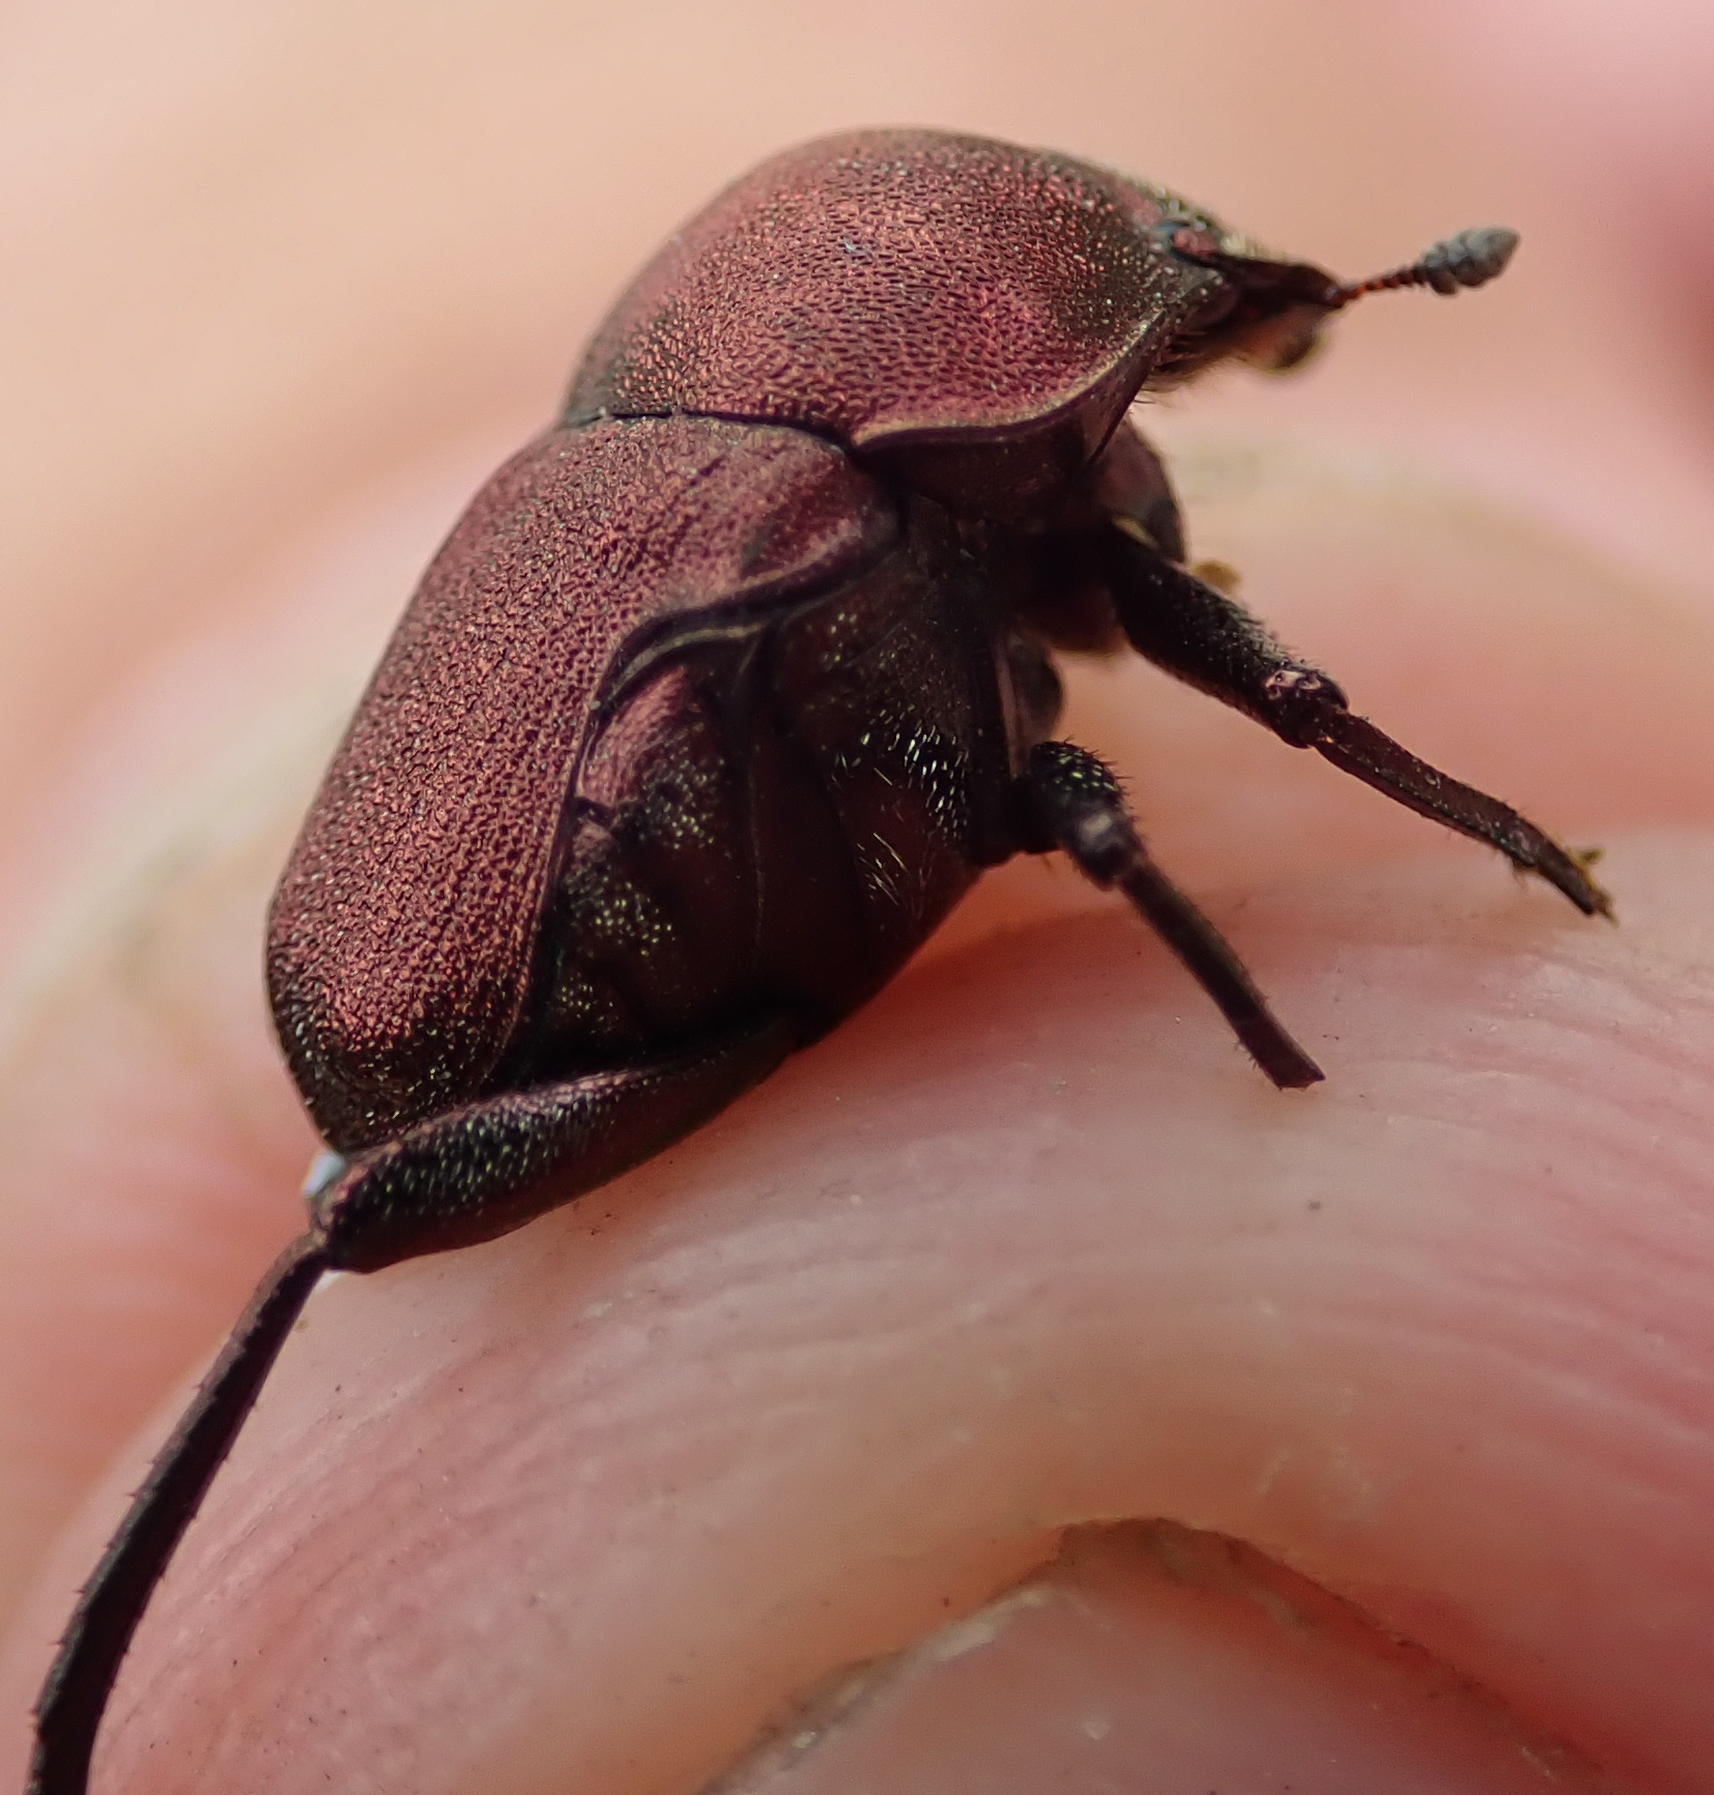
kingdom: Animalia
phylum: Arthropoda
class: Insecta
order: Coleoptera
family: Scarabaeidae
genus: Gymnopleurus
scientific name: Gymnopleurus aenescens
